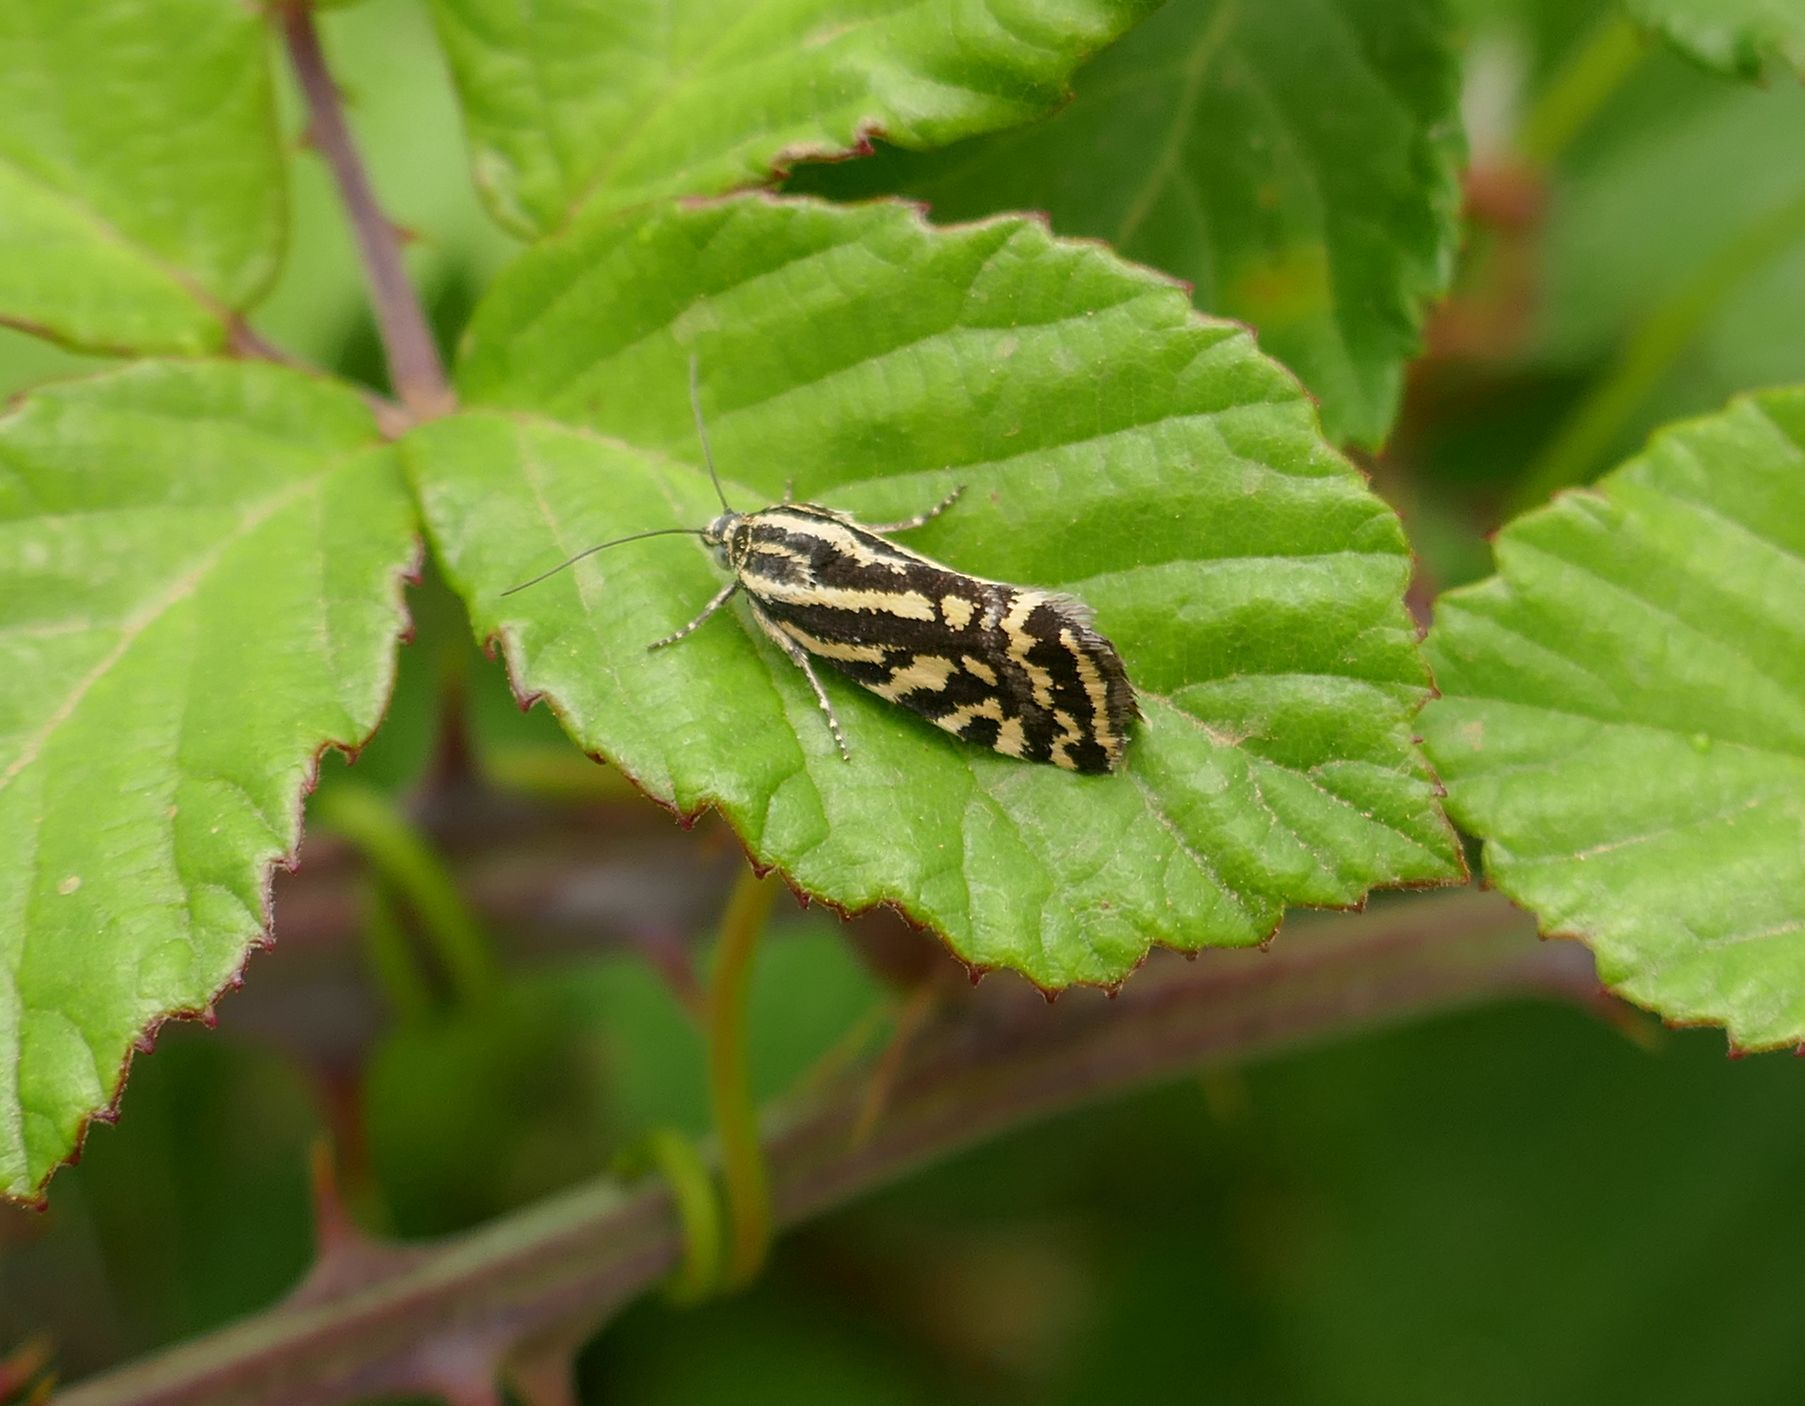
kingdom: Animalia
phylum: Arthropoda
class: Insecta
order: Lepidoptera
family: Noctuidae
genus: Acontia
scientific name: Acontia trabealis
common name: Spotted sulphur
